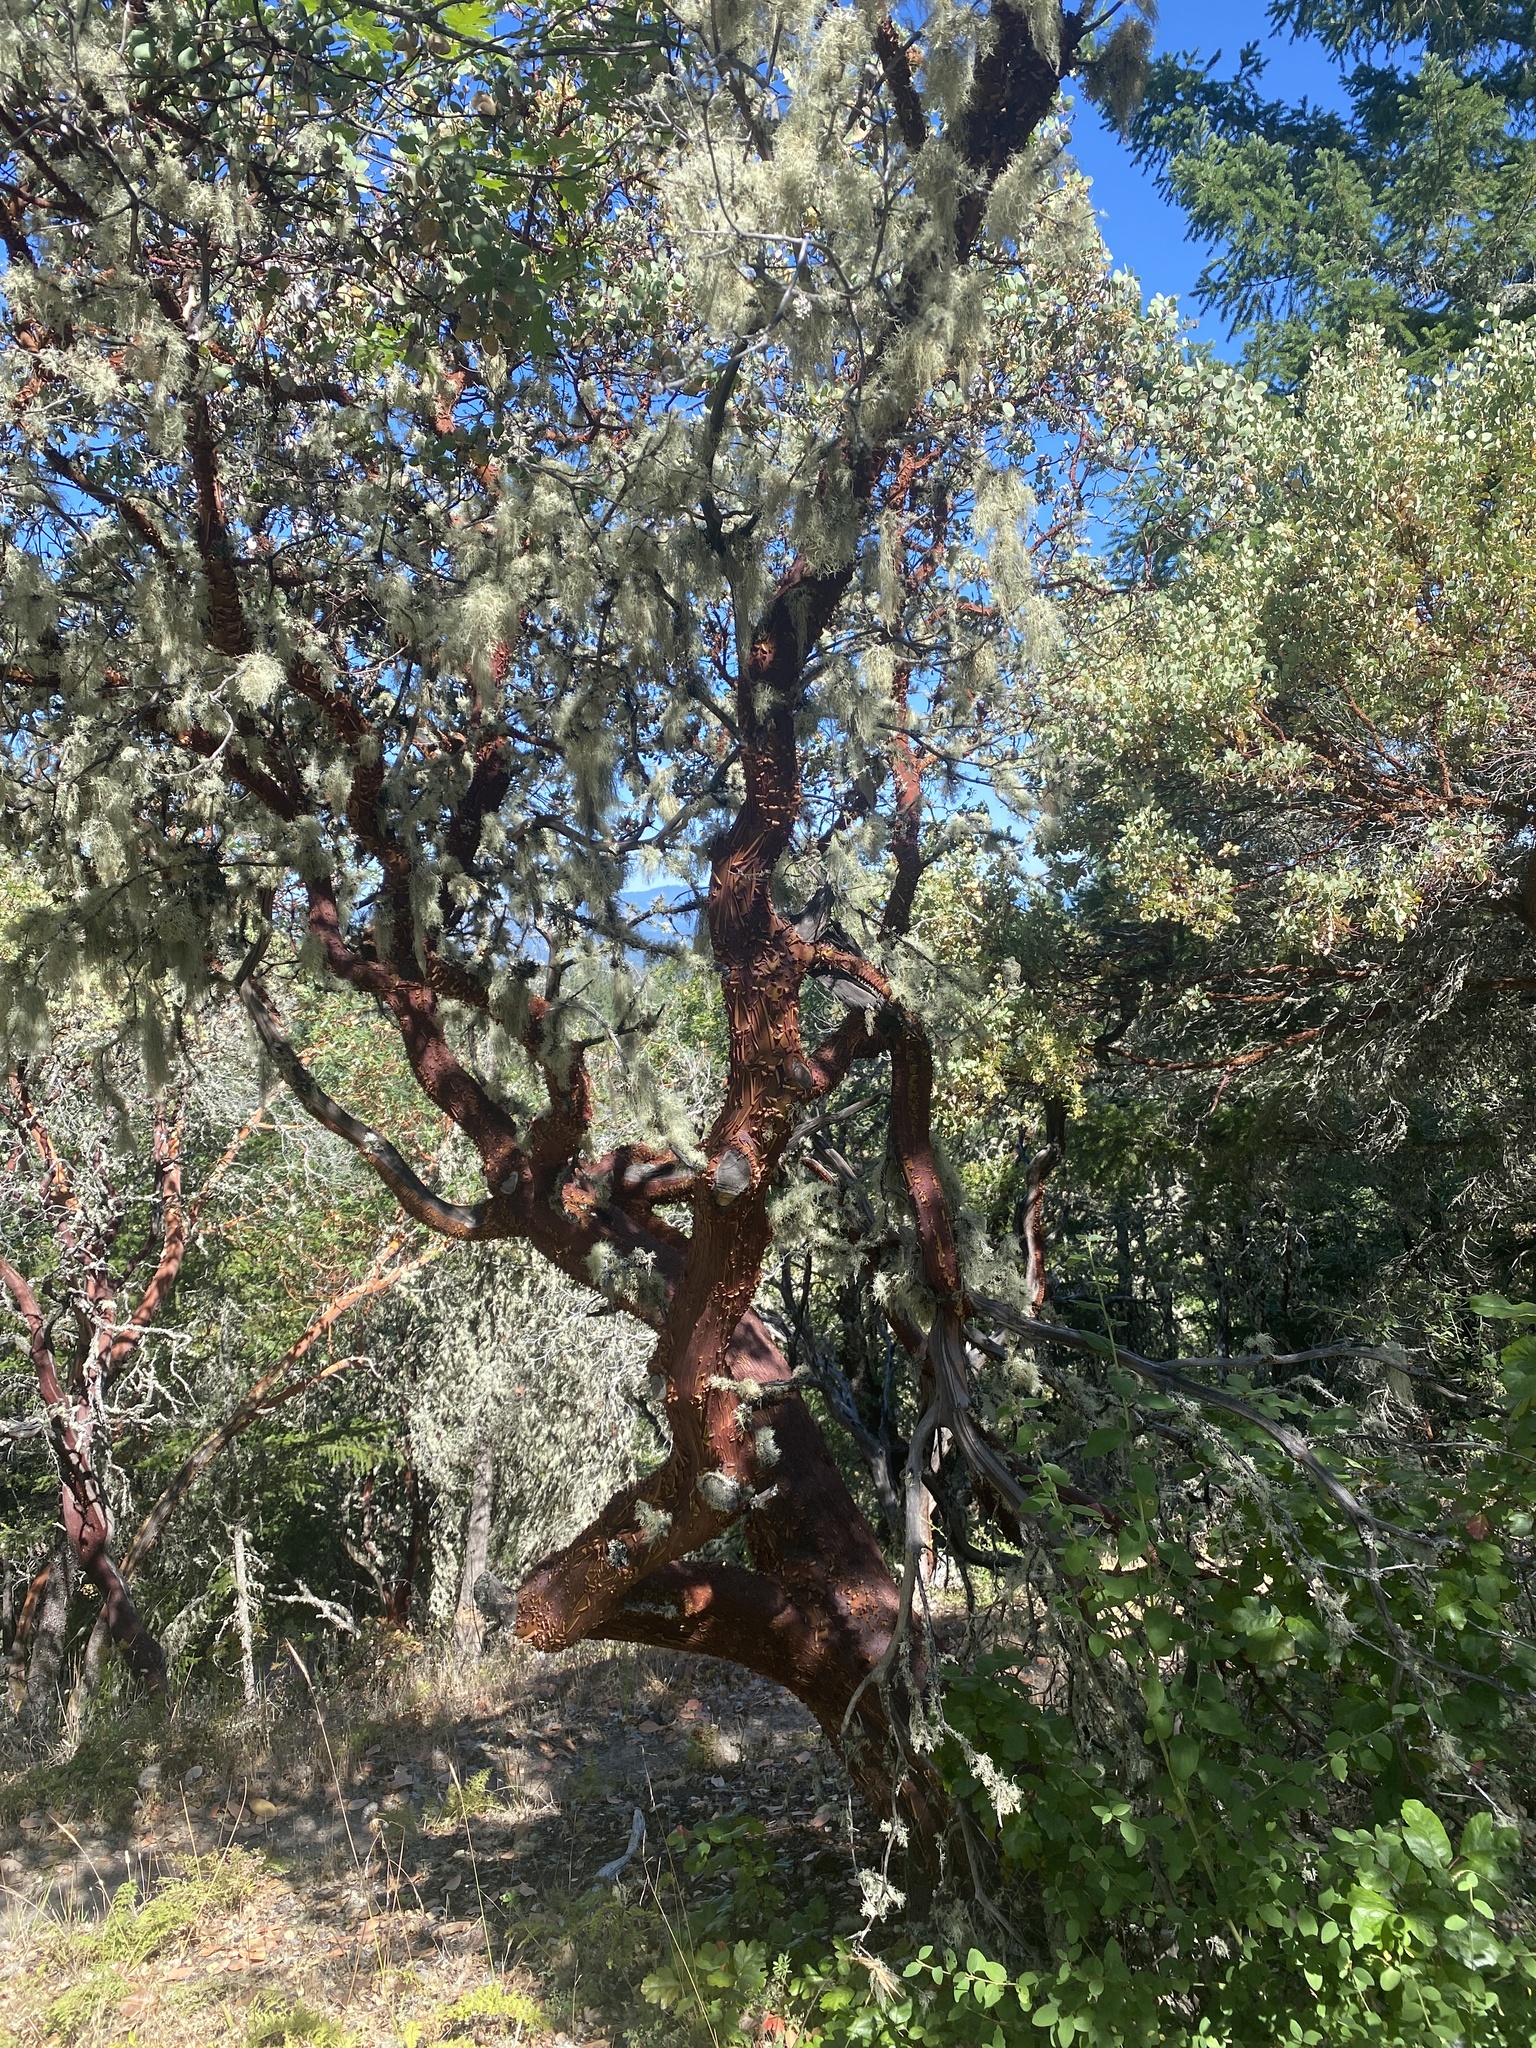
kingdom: Plantae
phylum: Tracheophyta
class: Magnoliopsida
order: Ericales
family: Ericaceae
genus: Arbutus
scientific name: Arbutus menziesii
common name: Pacific madrone
